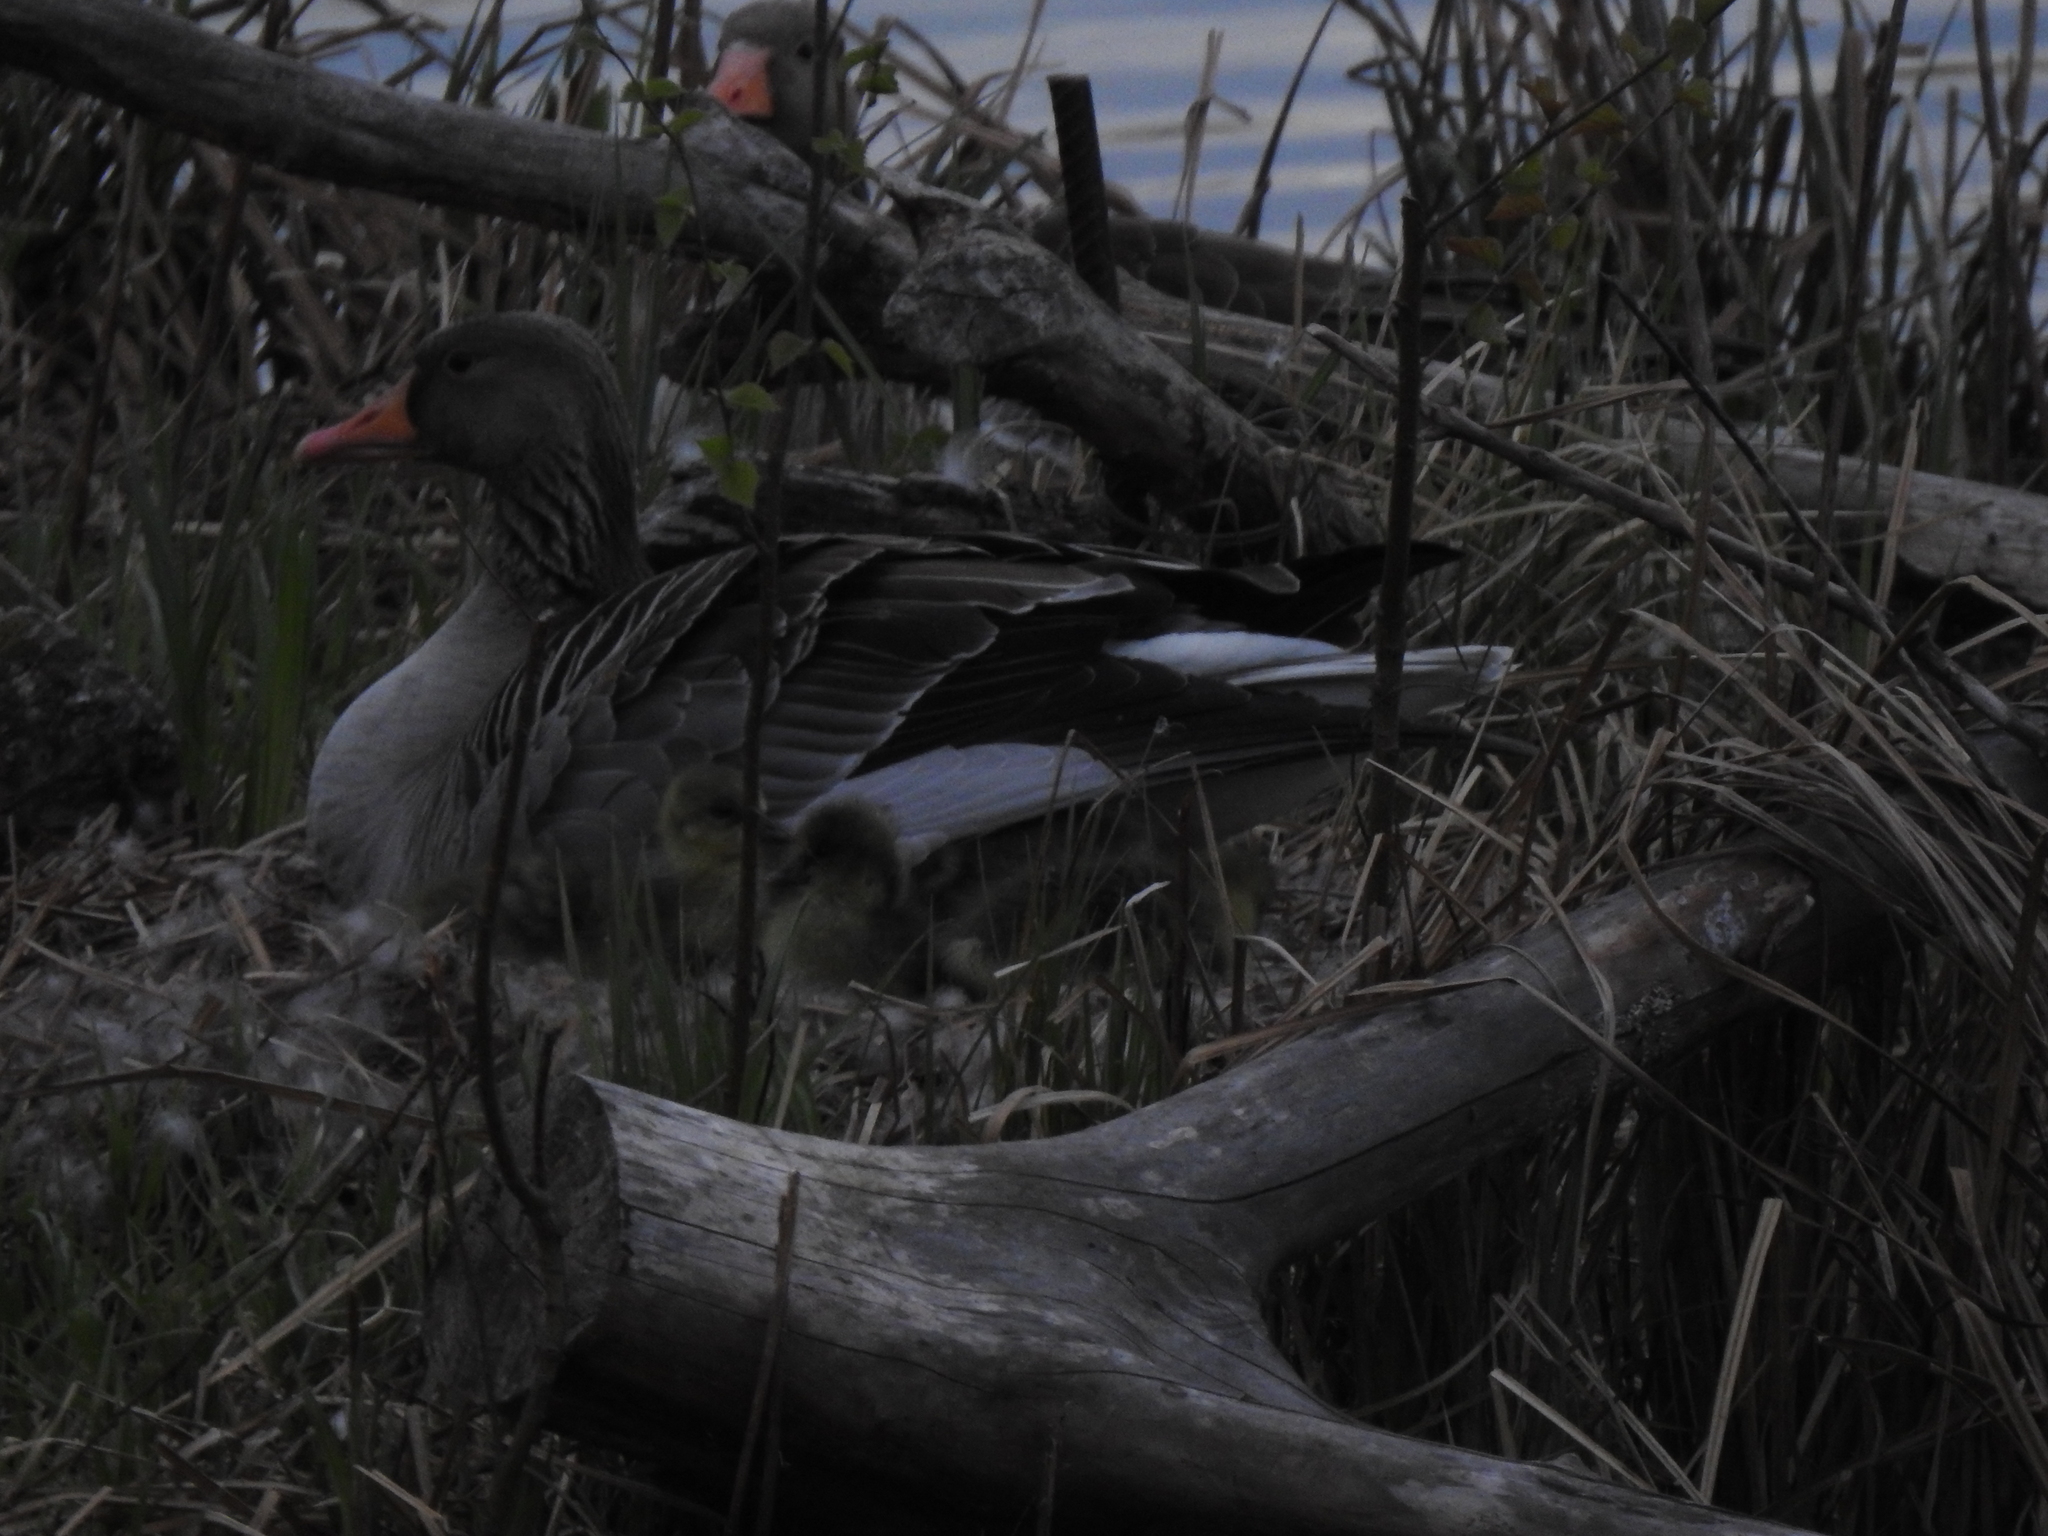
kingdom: Animalia
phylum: Chordata
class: Aves
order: Anseriformes
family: Anatidae
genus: Anser
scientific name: Anser anser
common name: Greylag goose
